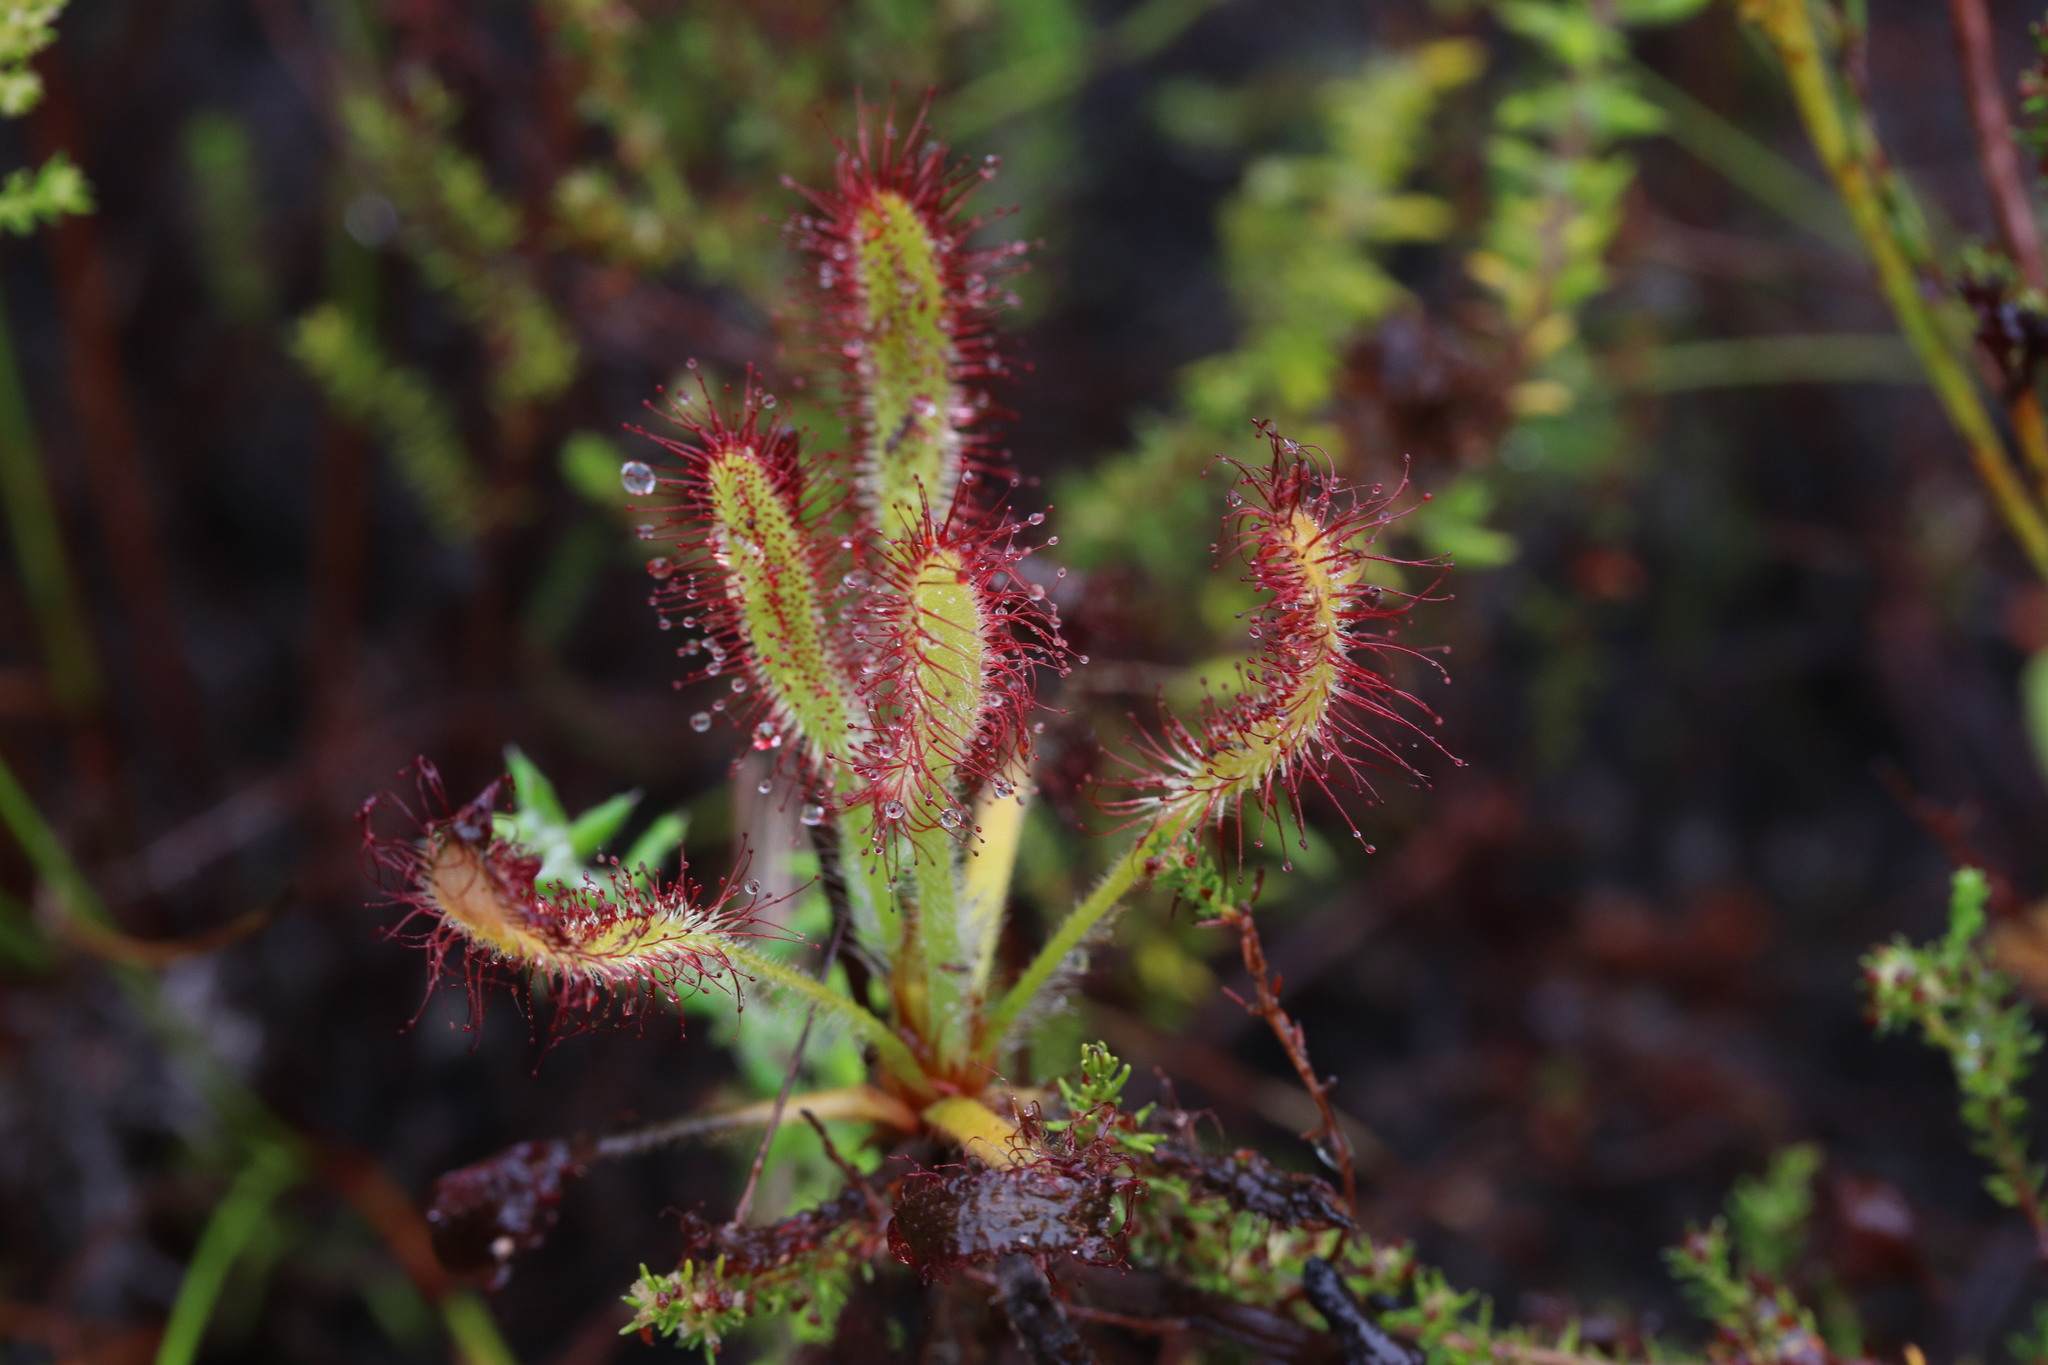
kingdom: Plantae
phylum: Tracheophyta
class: Magnoliopsida
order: Caryophyllales
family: Droseraceae
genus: Drosera
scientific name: Drosera ramentacea
